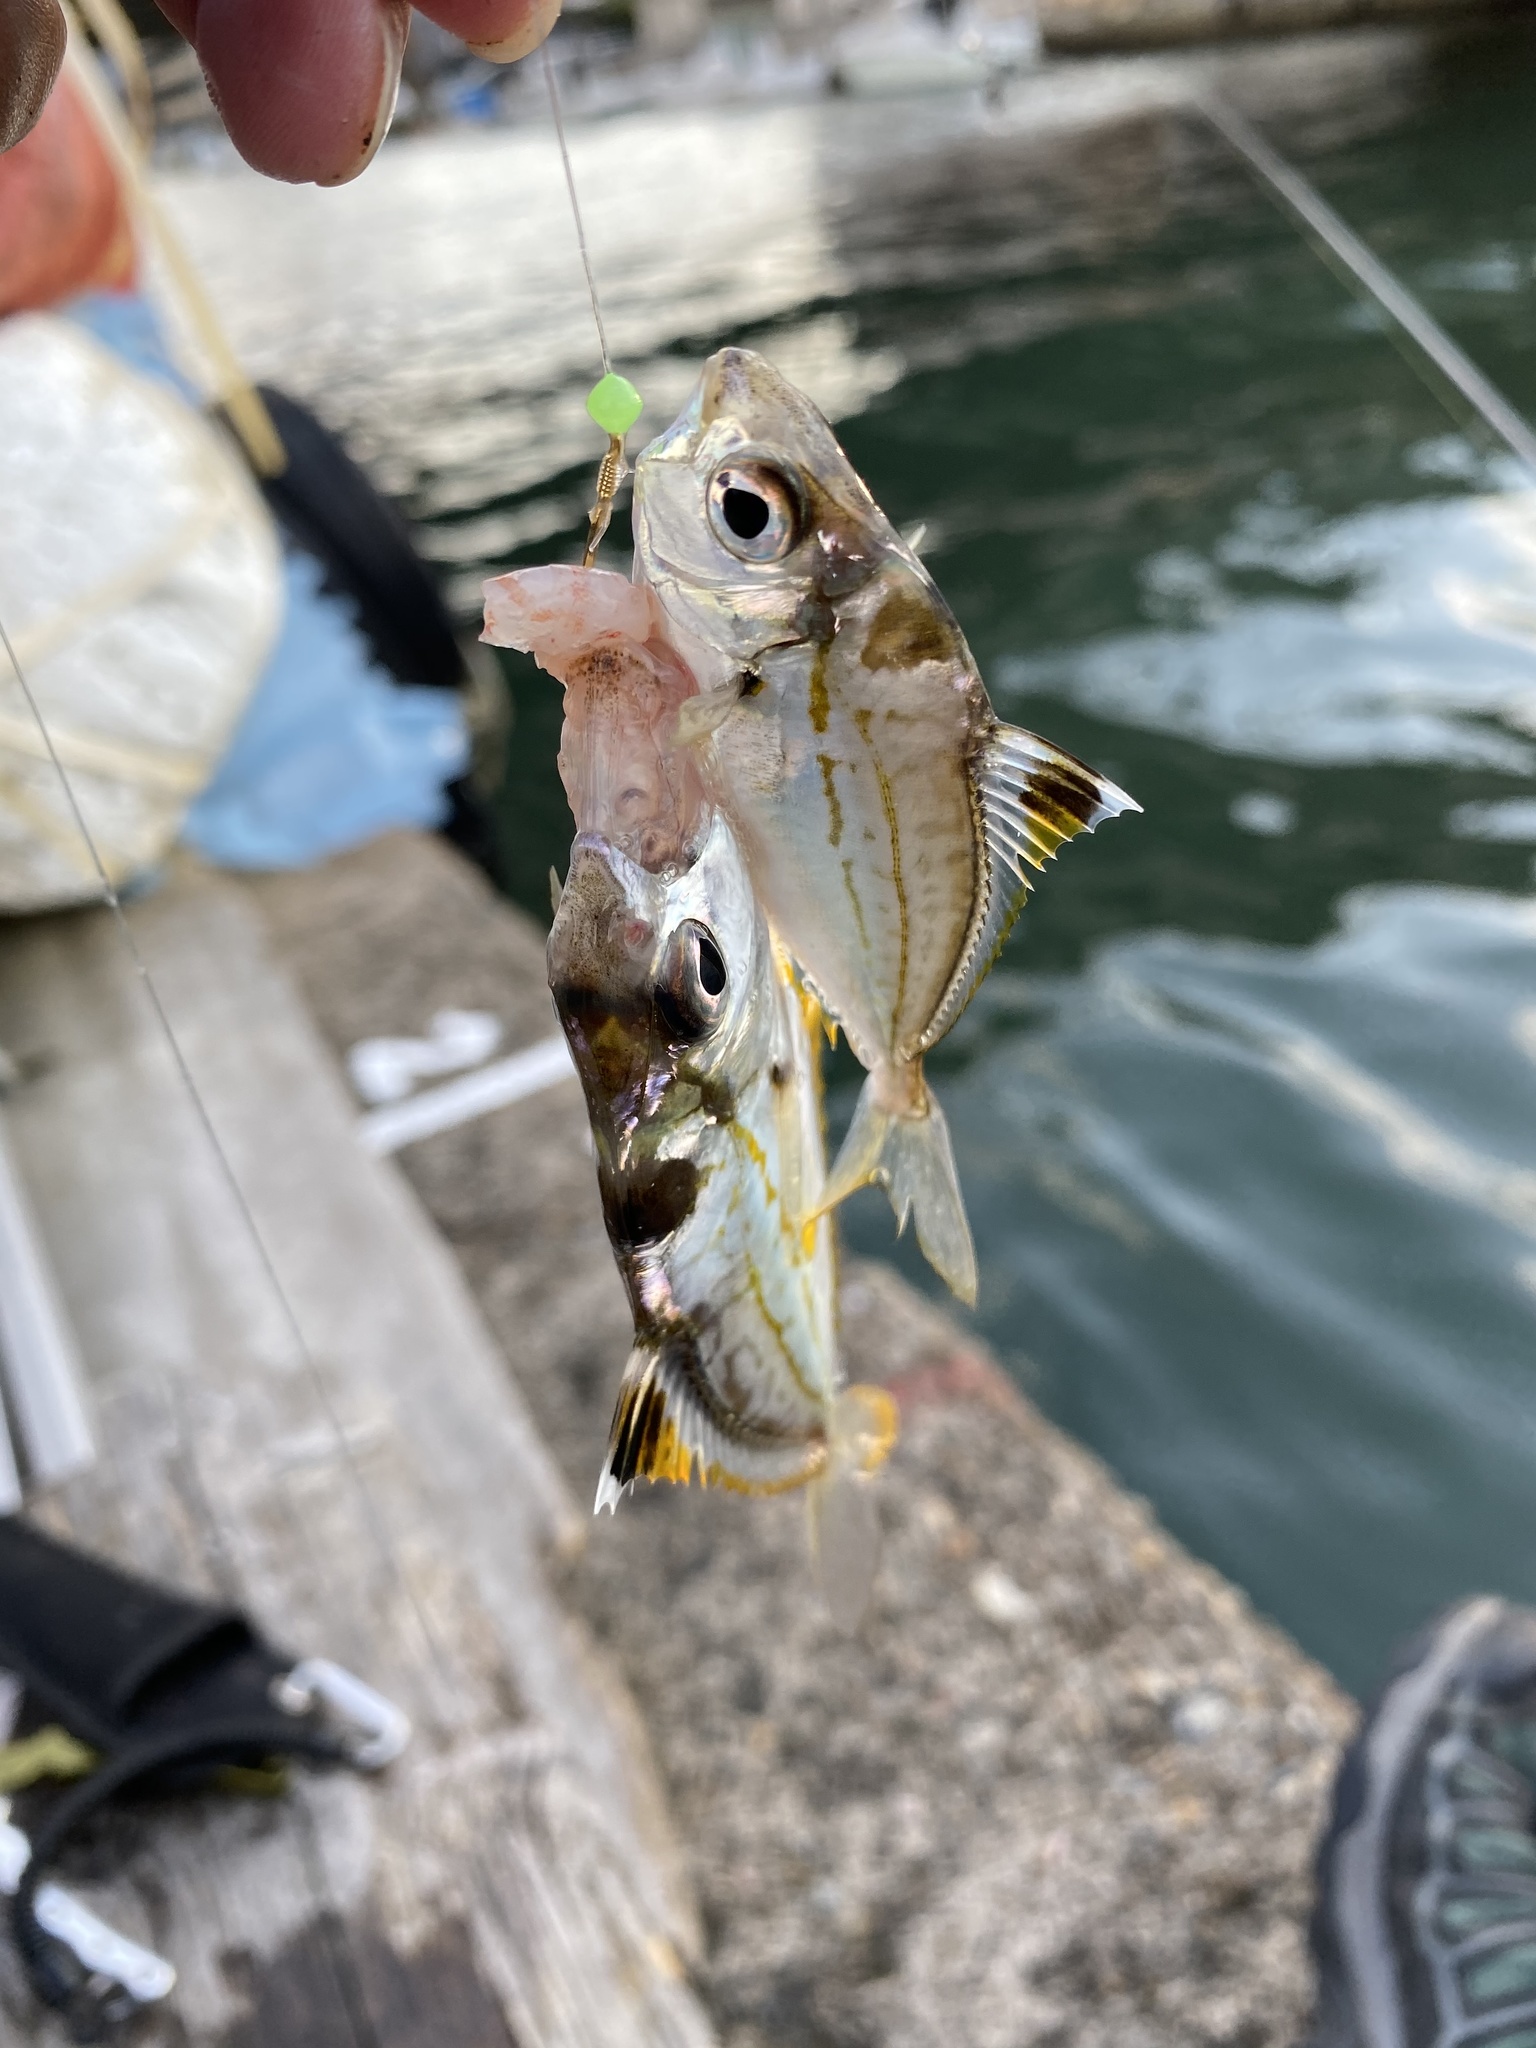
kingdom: Animalia
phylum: Chordata
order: Perciformes
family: Leiognathidae
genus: Nuchequula
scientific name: Nuchequula nuchalis
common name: Spotnape ponyfish
